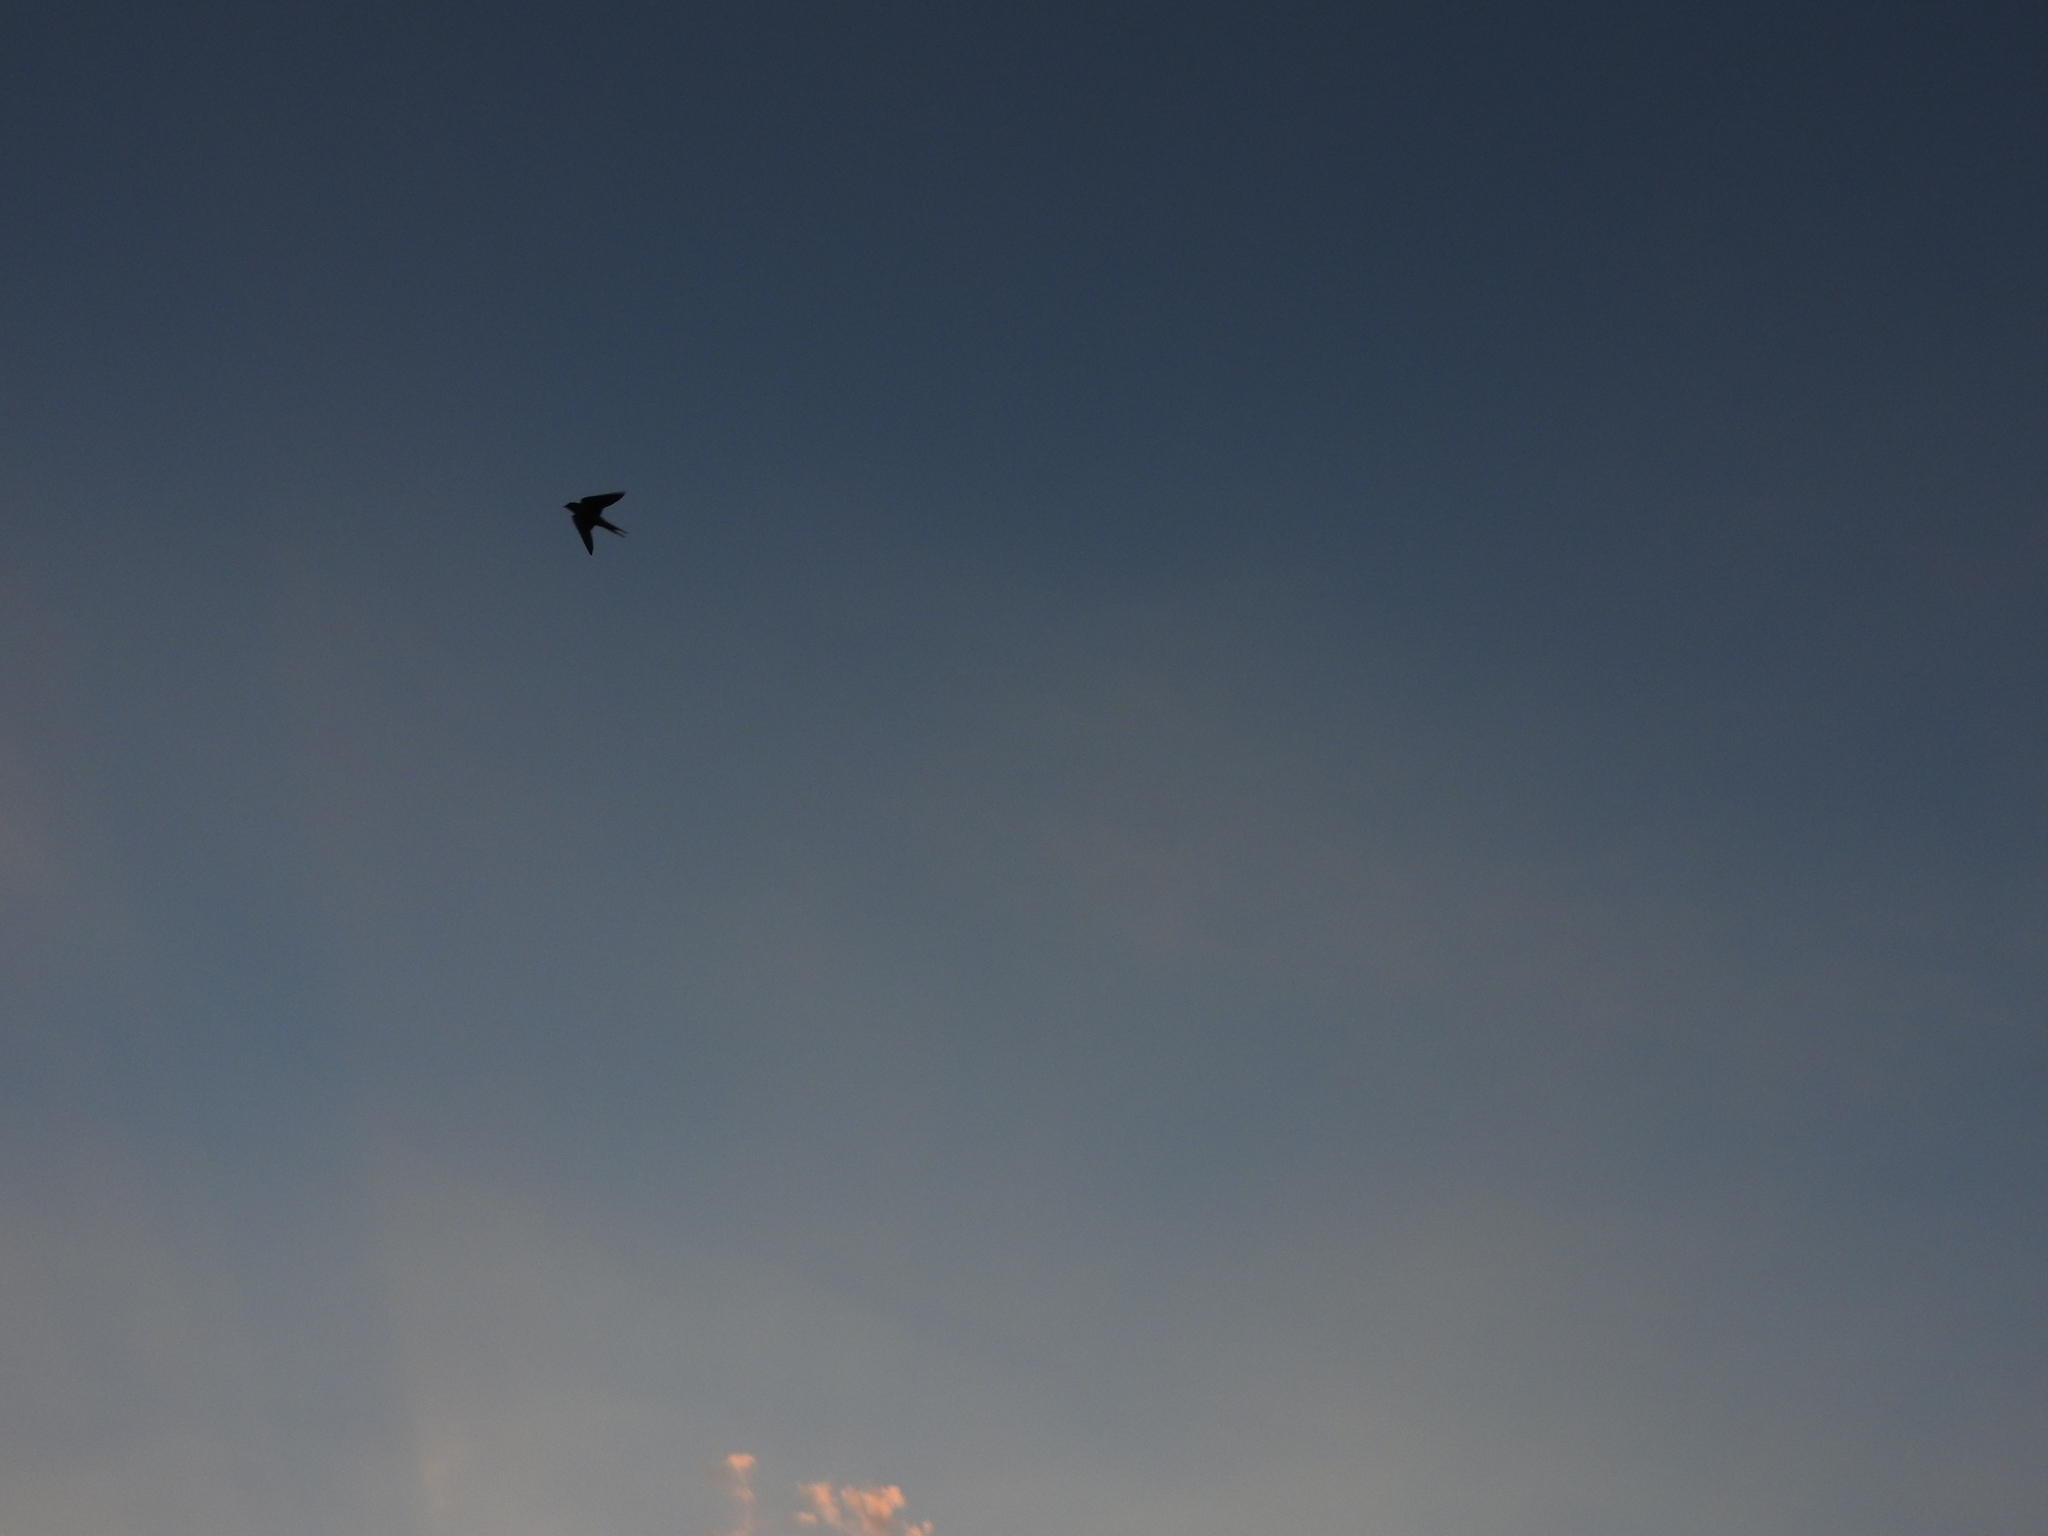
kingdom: Animalia
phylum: Chordata
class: Aves
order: Passeriformes
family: Hirundinidae
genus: Hirundo
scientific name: Hirundo rustica
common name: Barn swallow
